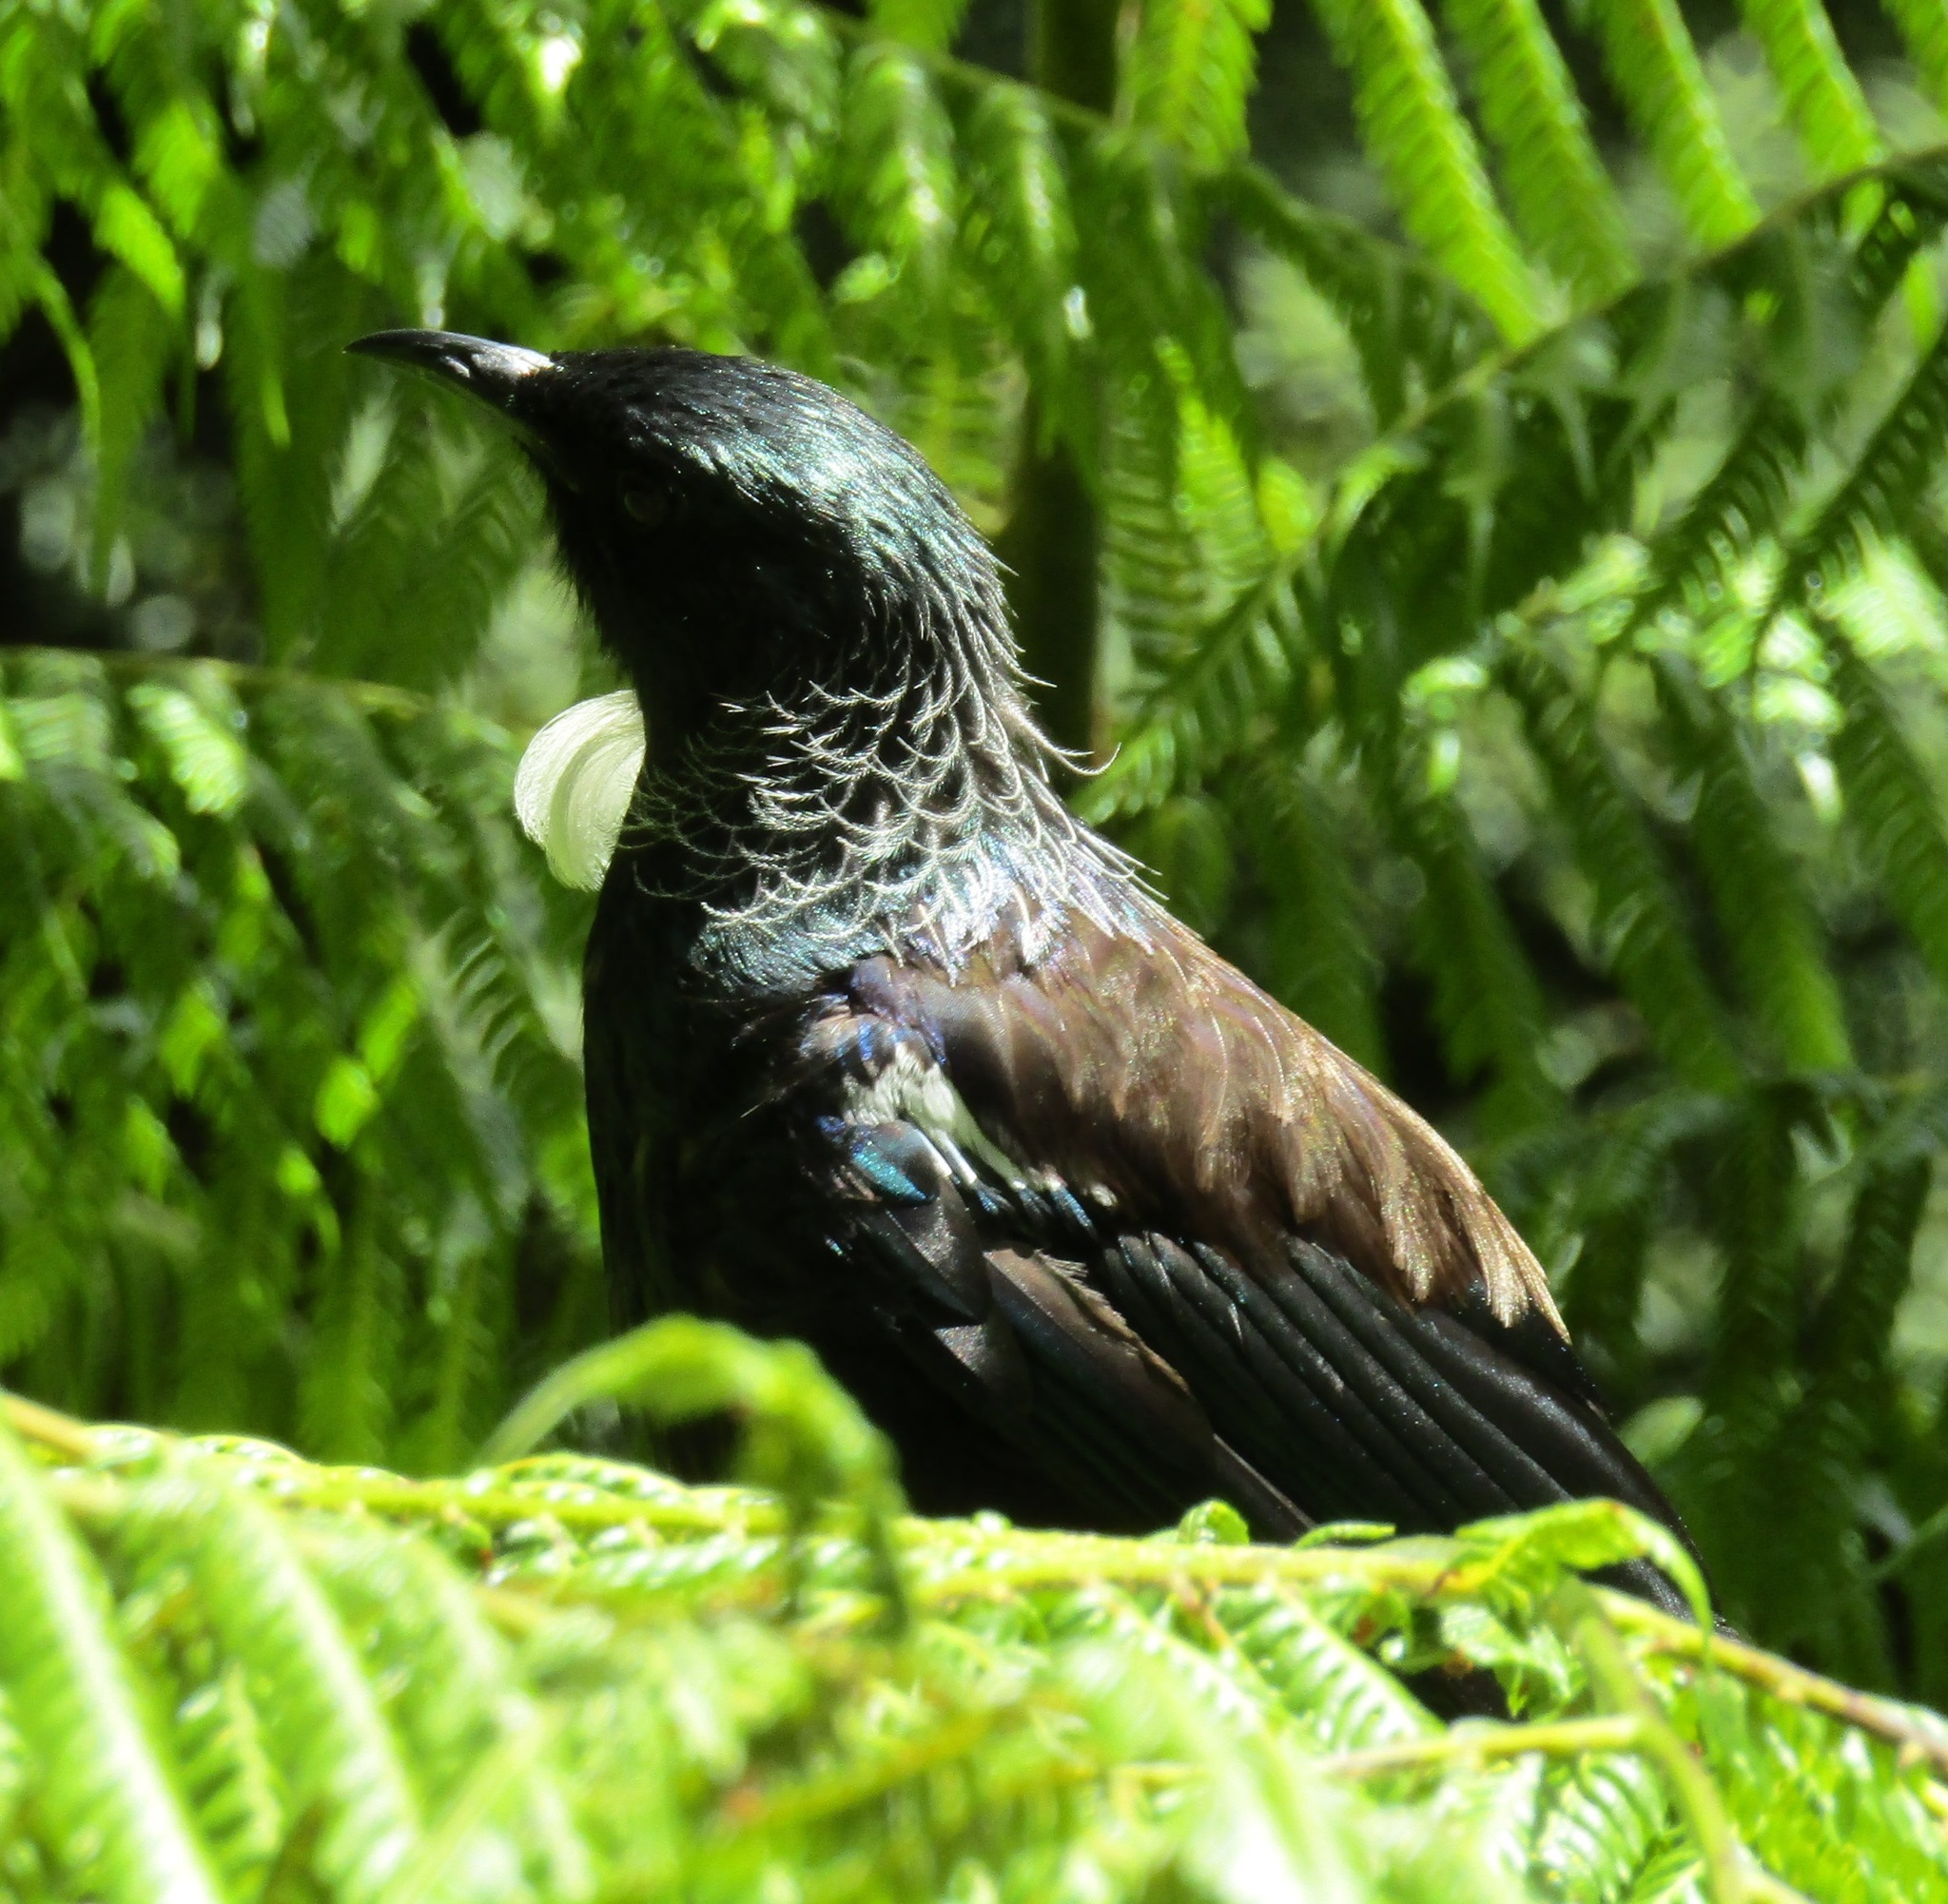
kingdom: Animalia
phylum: Chordata
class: Aves
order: Passeriformes
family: Meliphagidae
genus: Prosthemadera
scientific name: Prosthemadera novaeseelandiae
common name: Tui
